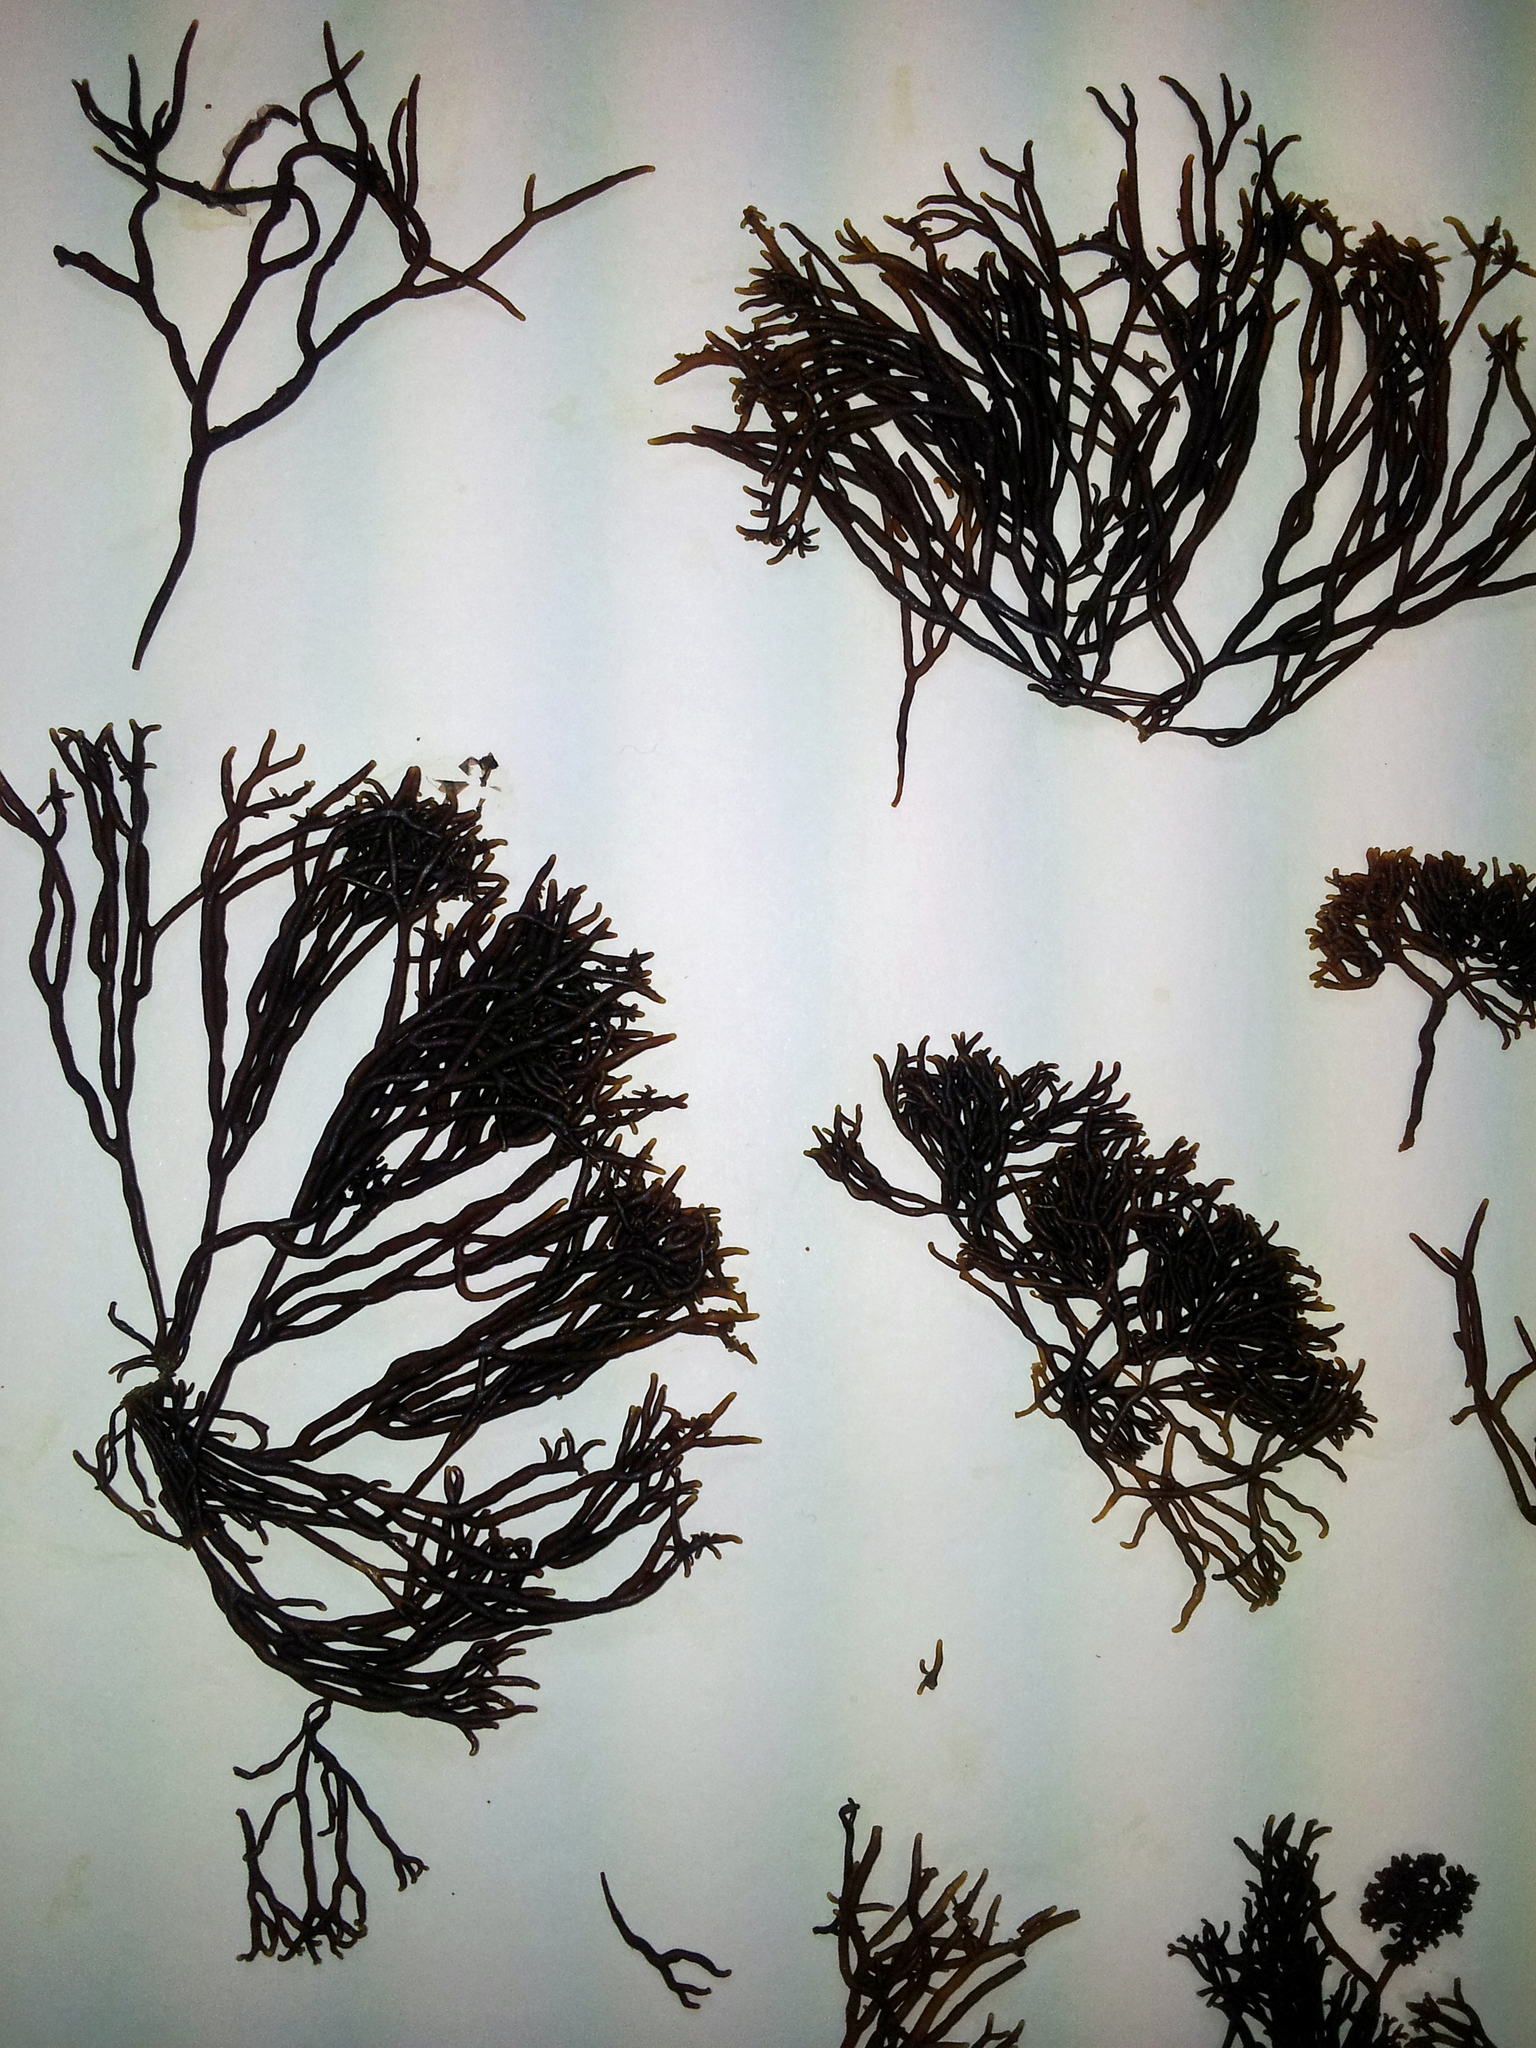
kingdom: Plantae
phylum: Rhodophyta
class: Florideophyceae
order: Hildenbrandiales
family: Hildenbrandiaceae
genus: Apophlaea
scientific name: Apophlaea lyallii
